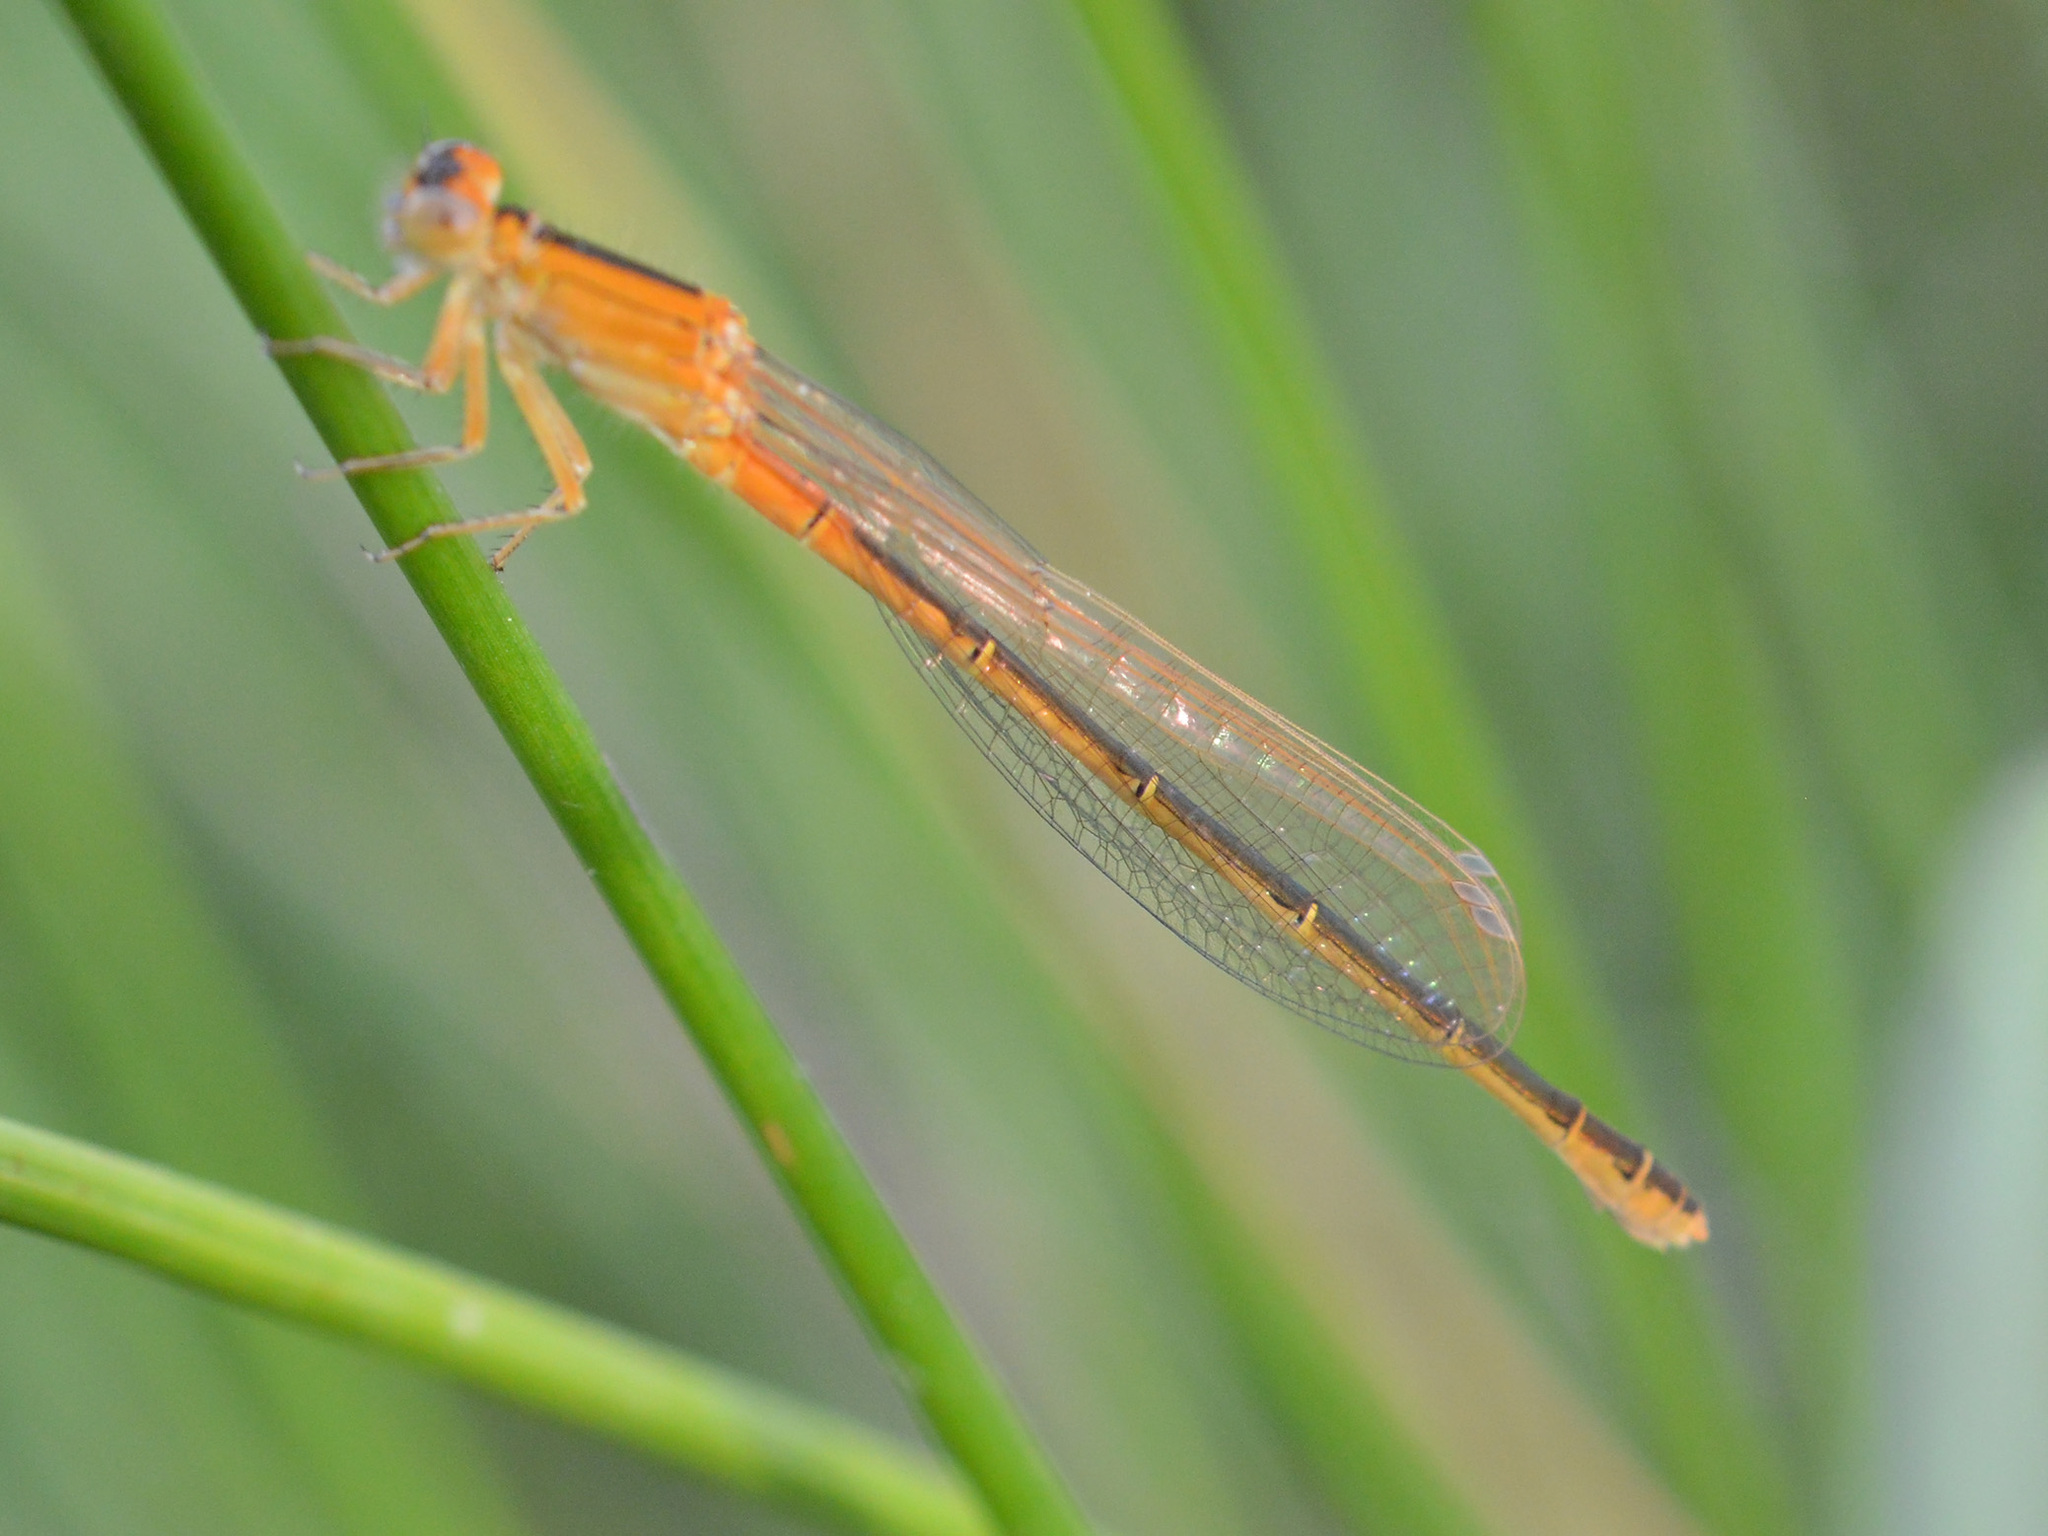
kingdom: Animalia
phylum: Arthropoda
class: Insecta
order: Odonata
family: Coenagrionidae
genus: Ischnura
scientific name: Ischnura pumilio
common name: Scarce blue-tailed damselfly
